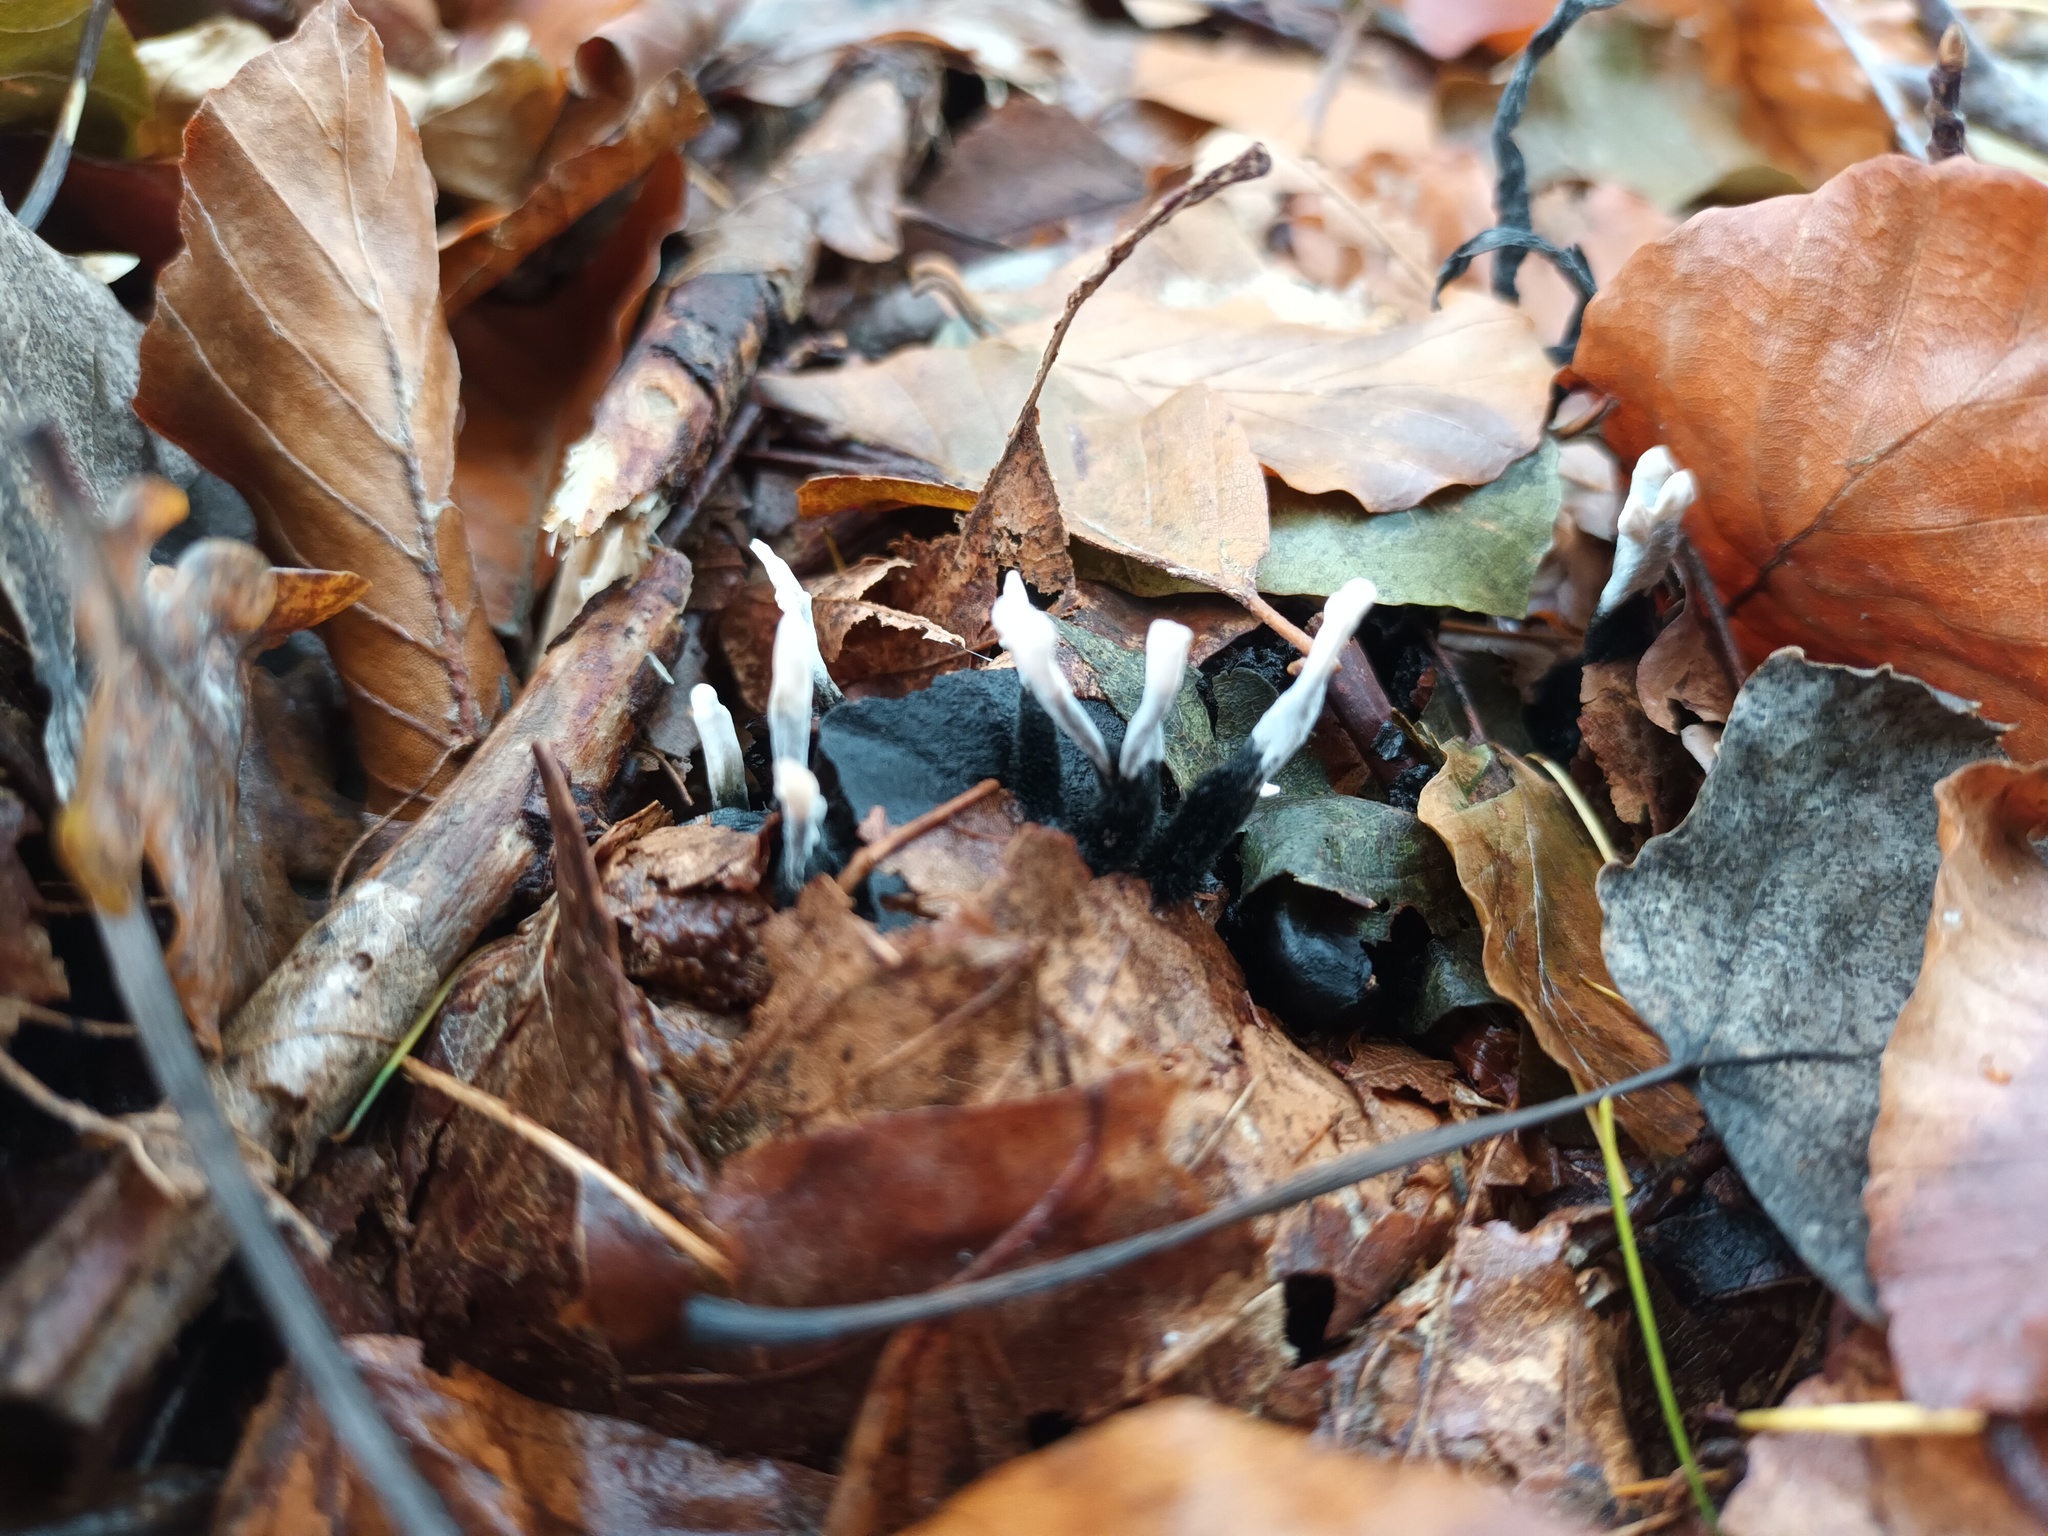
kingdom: Fungi
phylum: Ascomycota
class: Sordariomycetes
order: Xylariales
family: Xylariaceae
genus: Xylaria
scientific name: Xylaria hypoxylon
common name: Candle-snuff fungus
